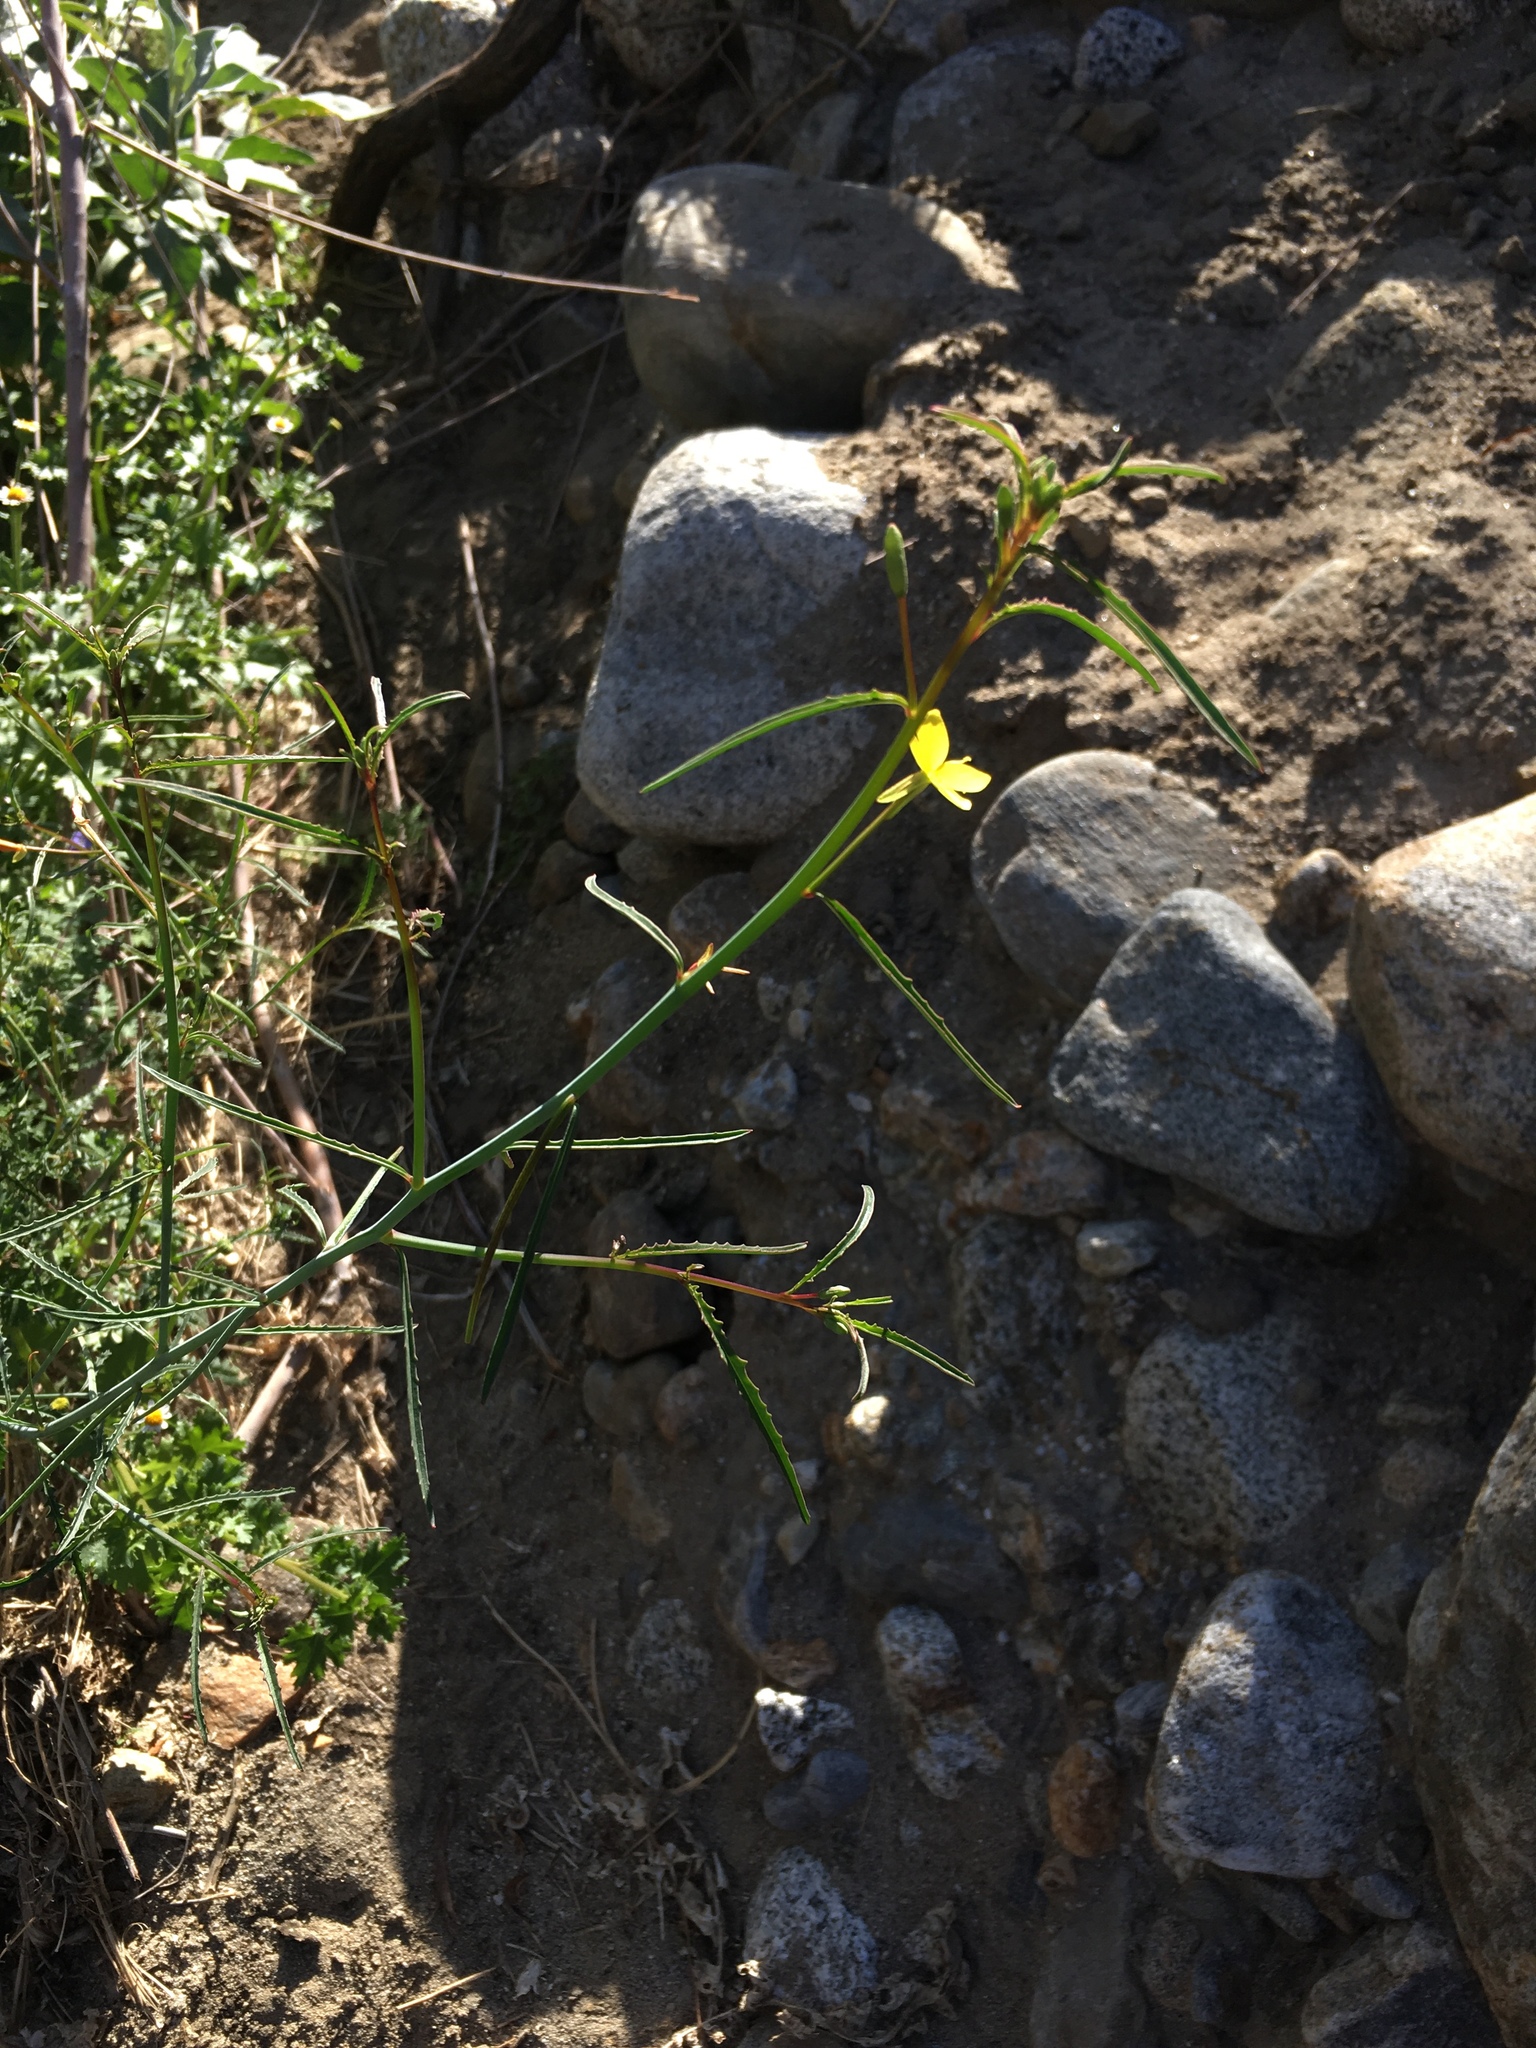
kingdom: Plantae
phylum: Tracheophyta
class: Magnoliopsida
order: Myrtales
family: Onagraceae
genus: Eulobus
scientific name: Eulobus californicus
